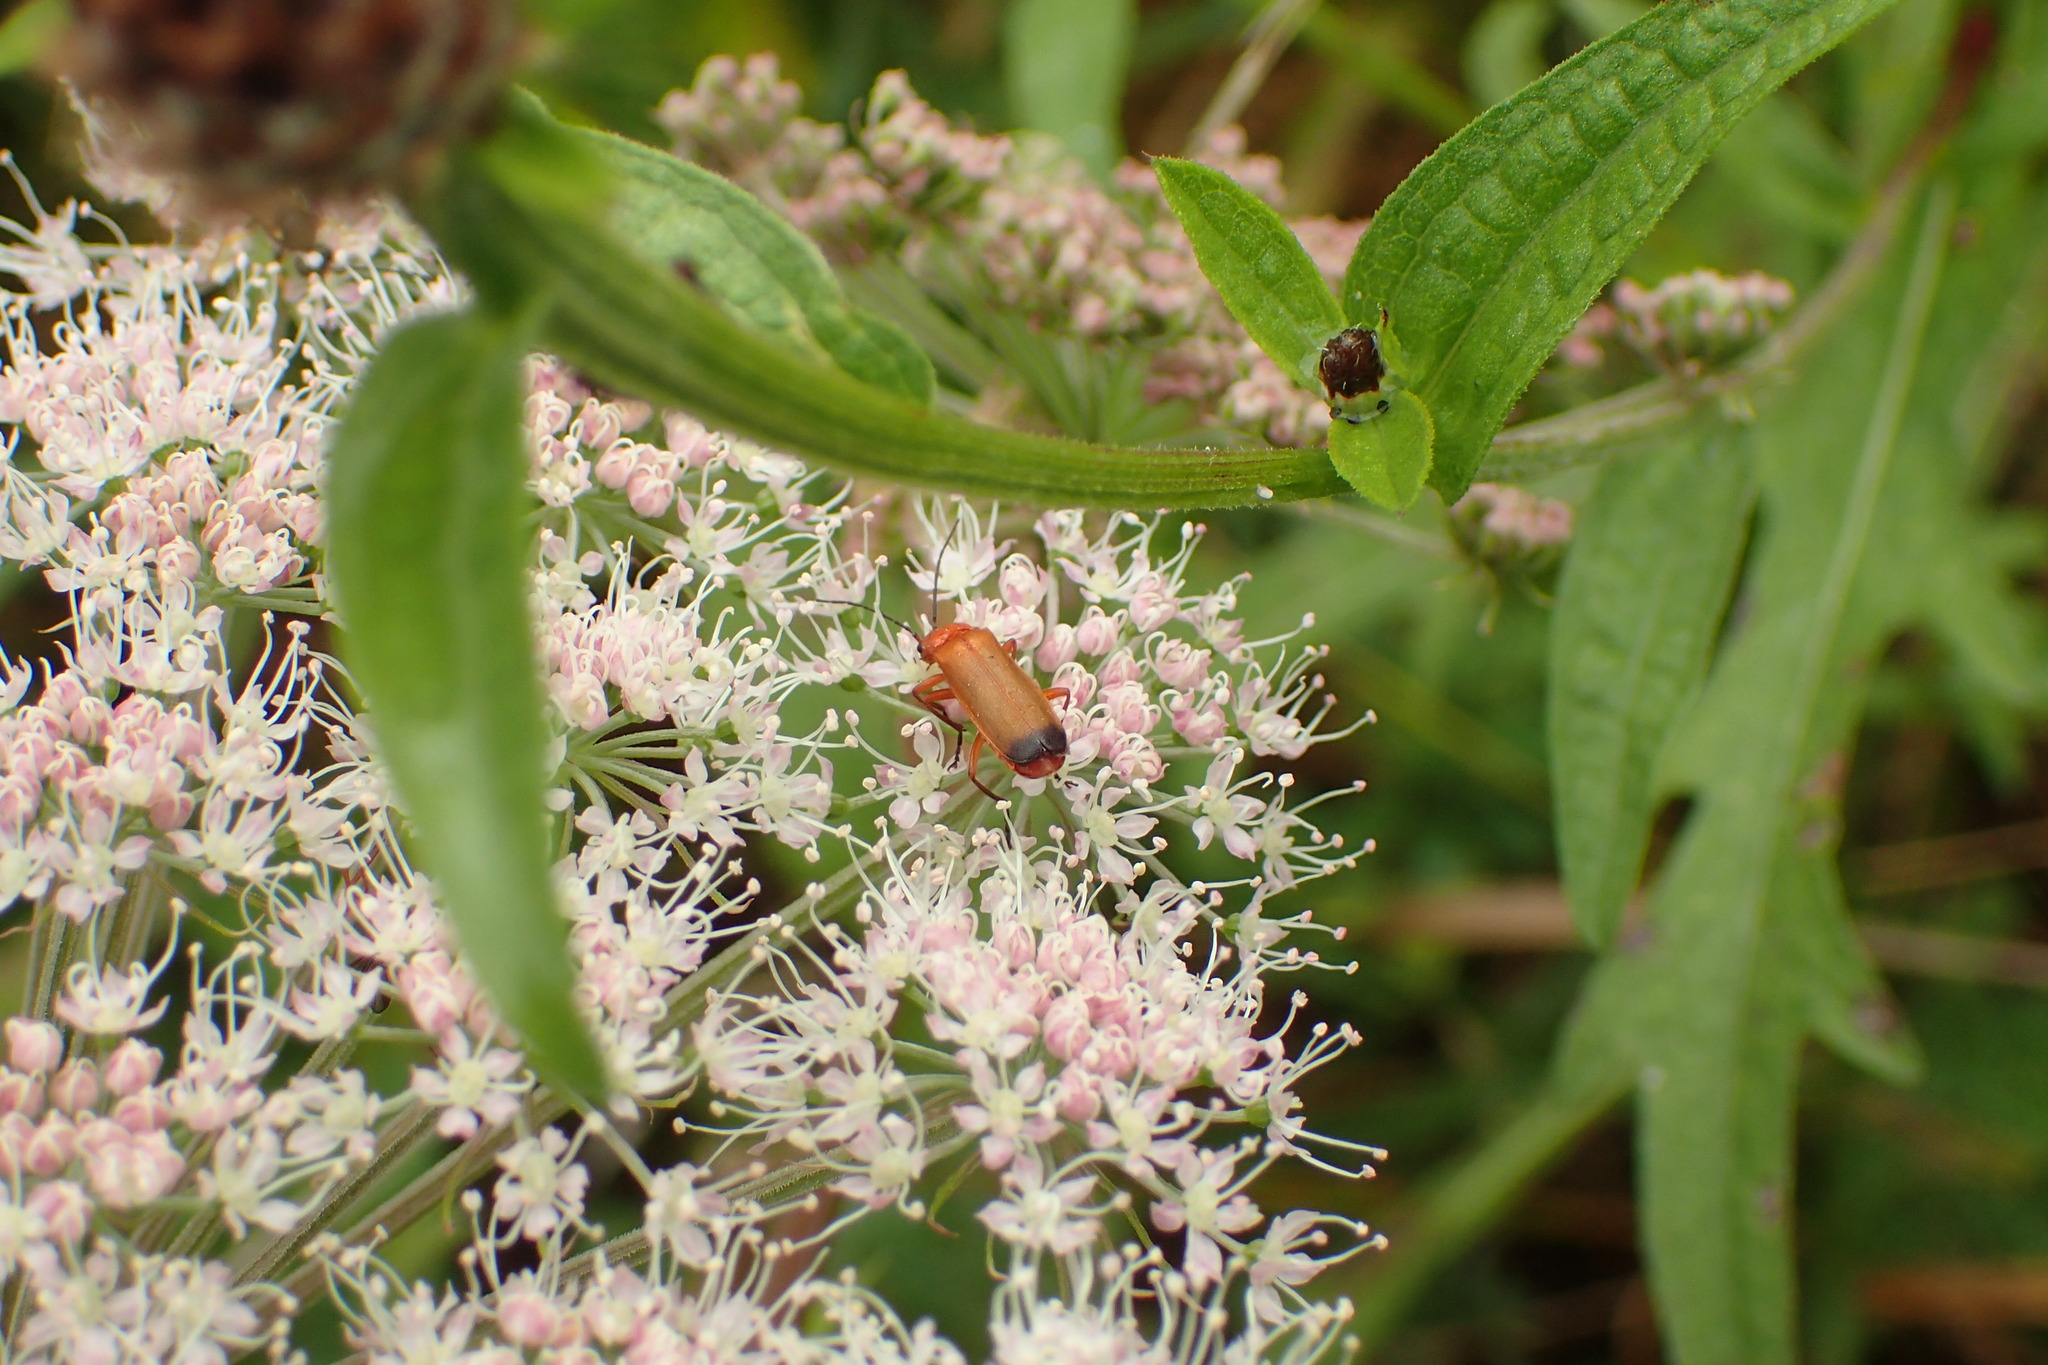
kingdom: Animalia
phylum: Arthropoda
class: Insecta
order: Coleoptera
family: Cantharidae
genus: Rhagonycha
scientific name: Rhagonycha fulva
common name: Common red soldier beetle
